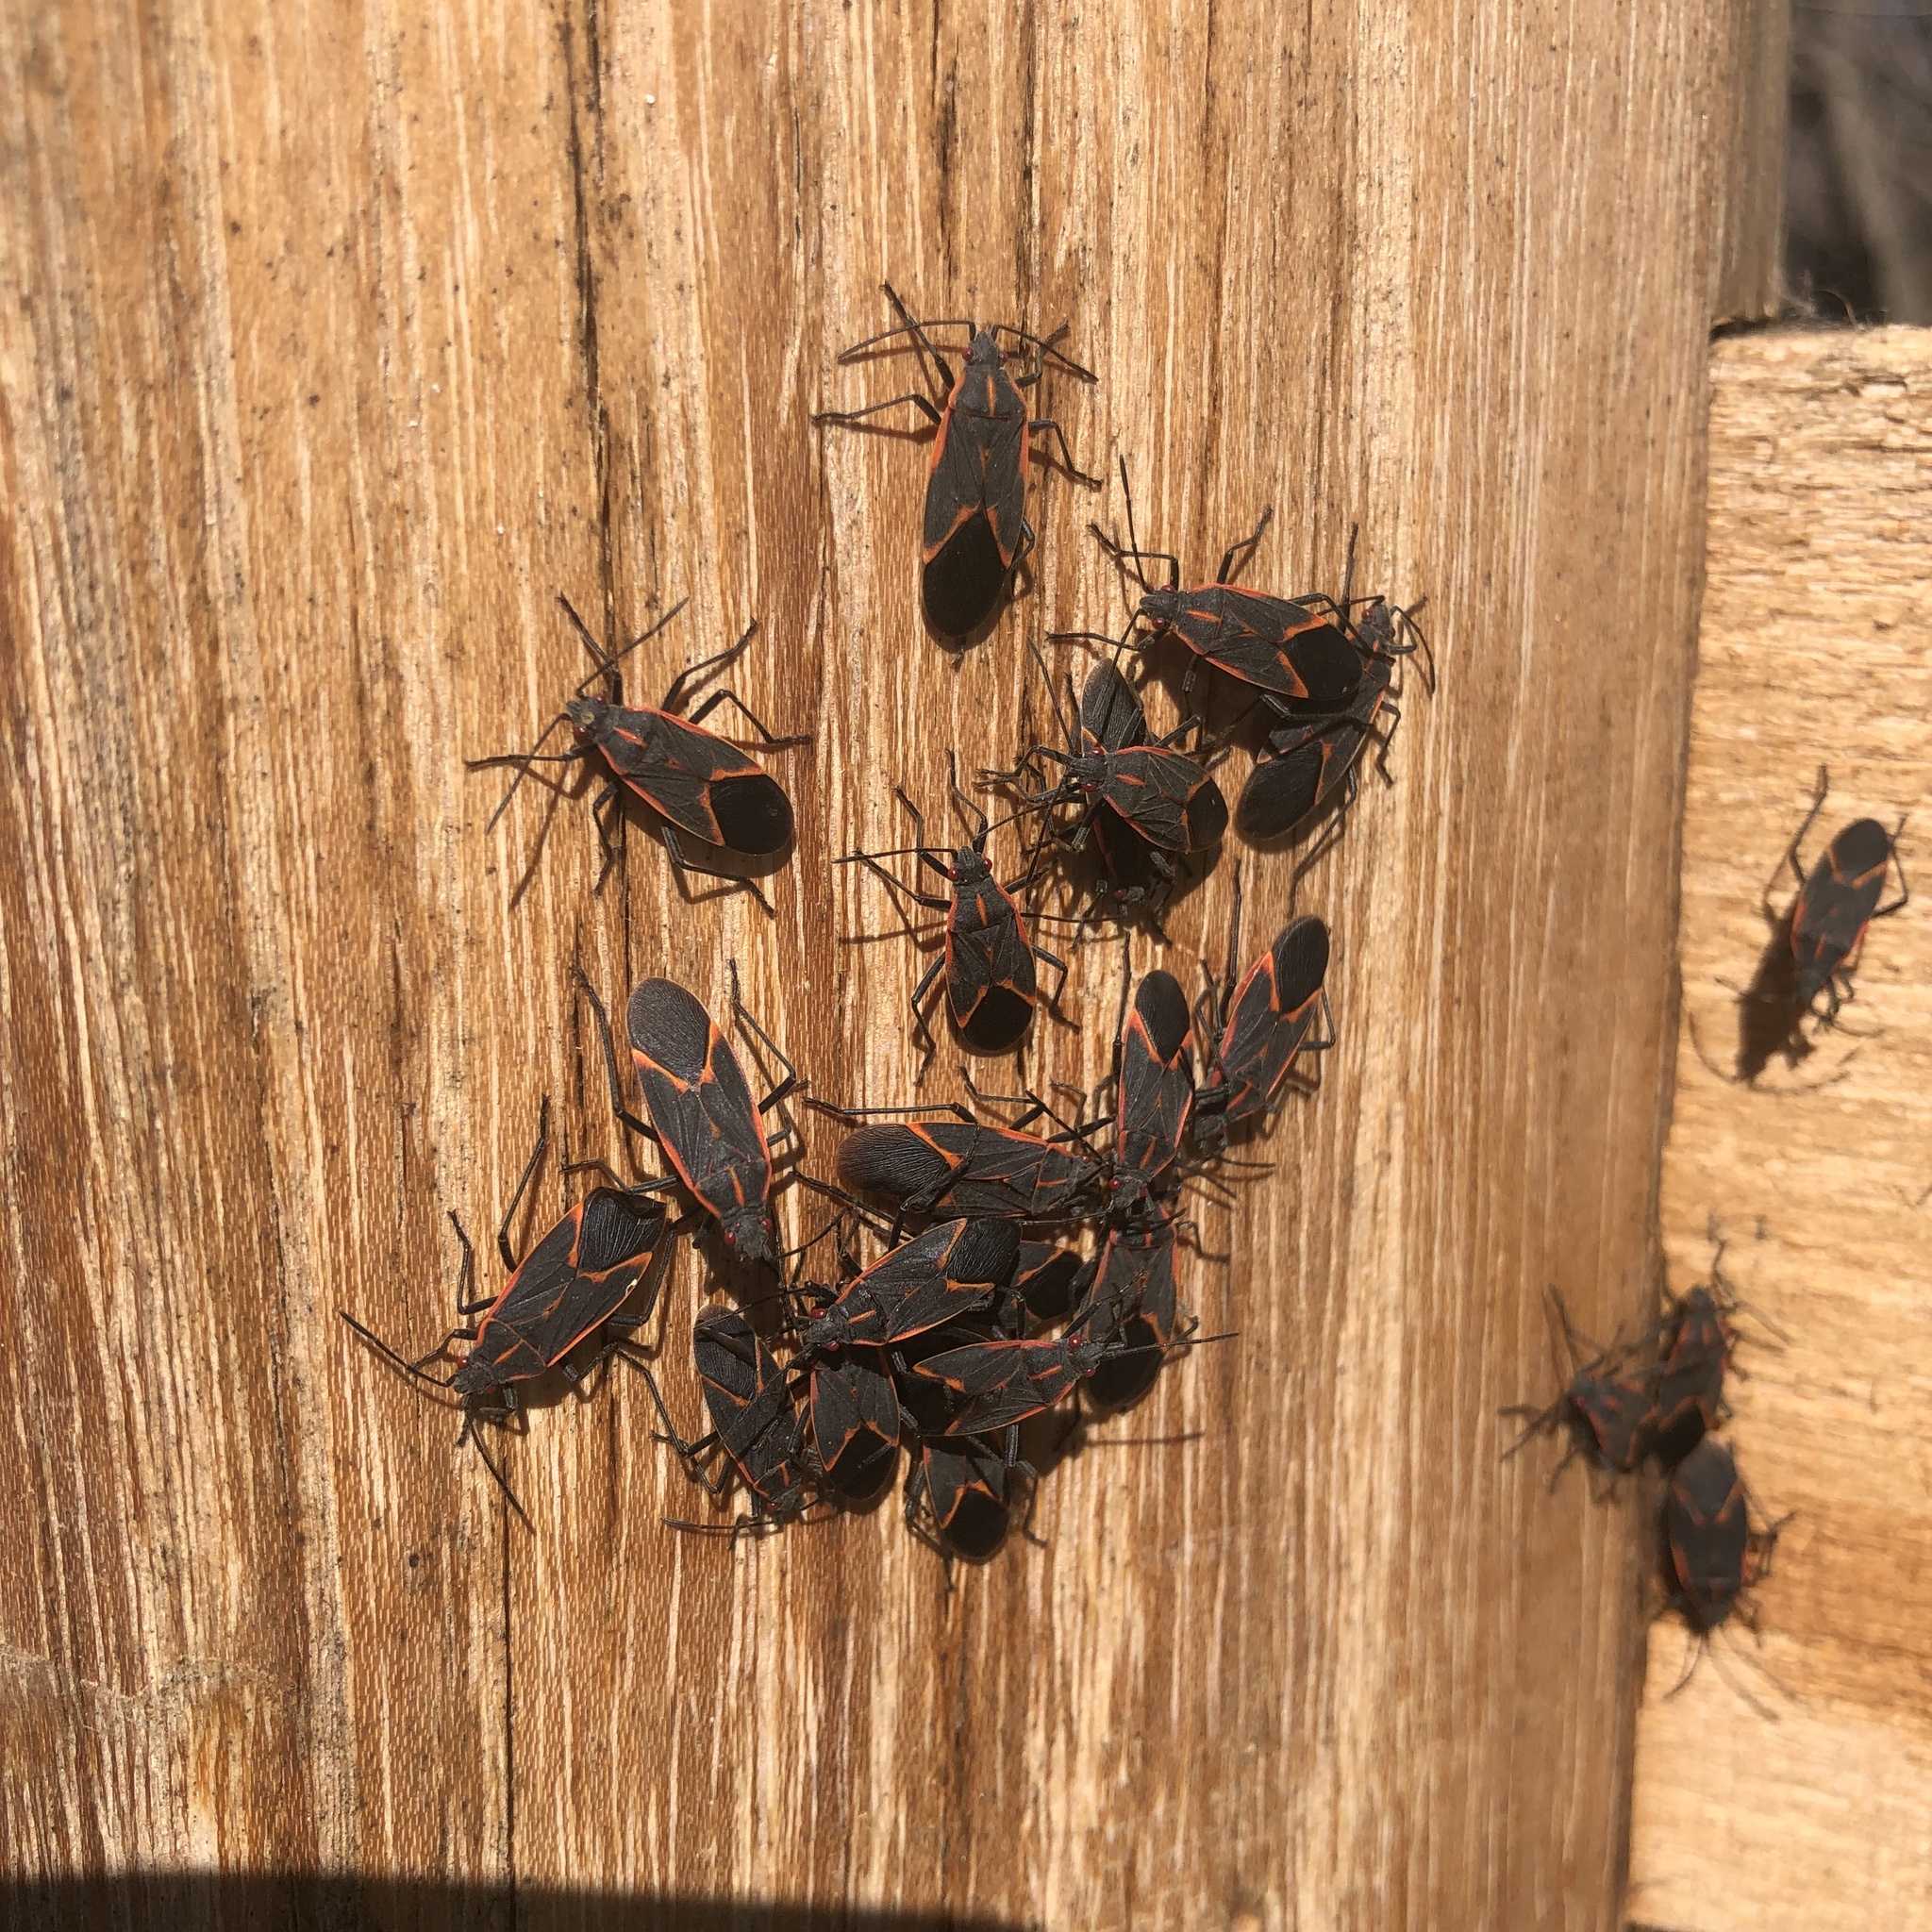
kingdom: Animalia
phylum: Arthropoda
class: Insecta
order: Hemiptera
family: Rhopalidae
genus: Boisea
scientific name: Boisea trivittata
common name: Boxelder bug
